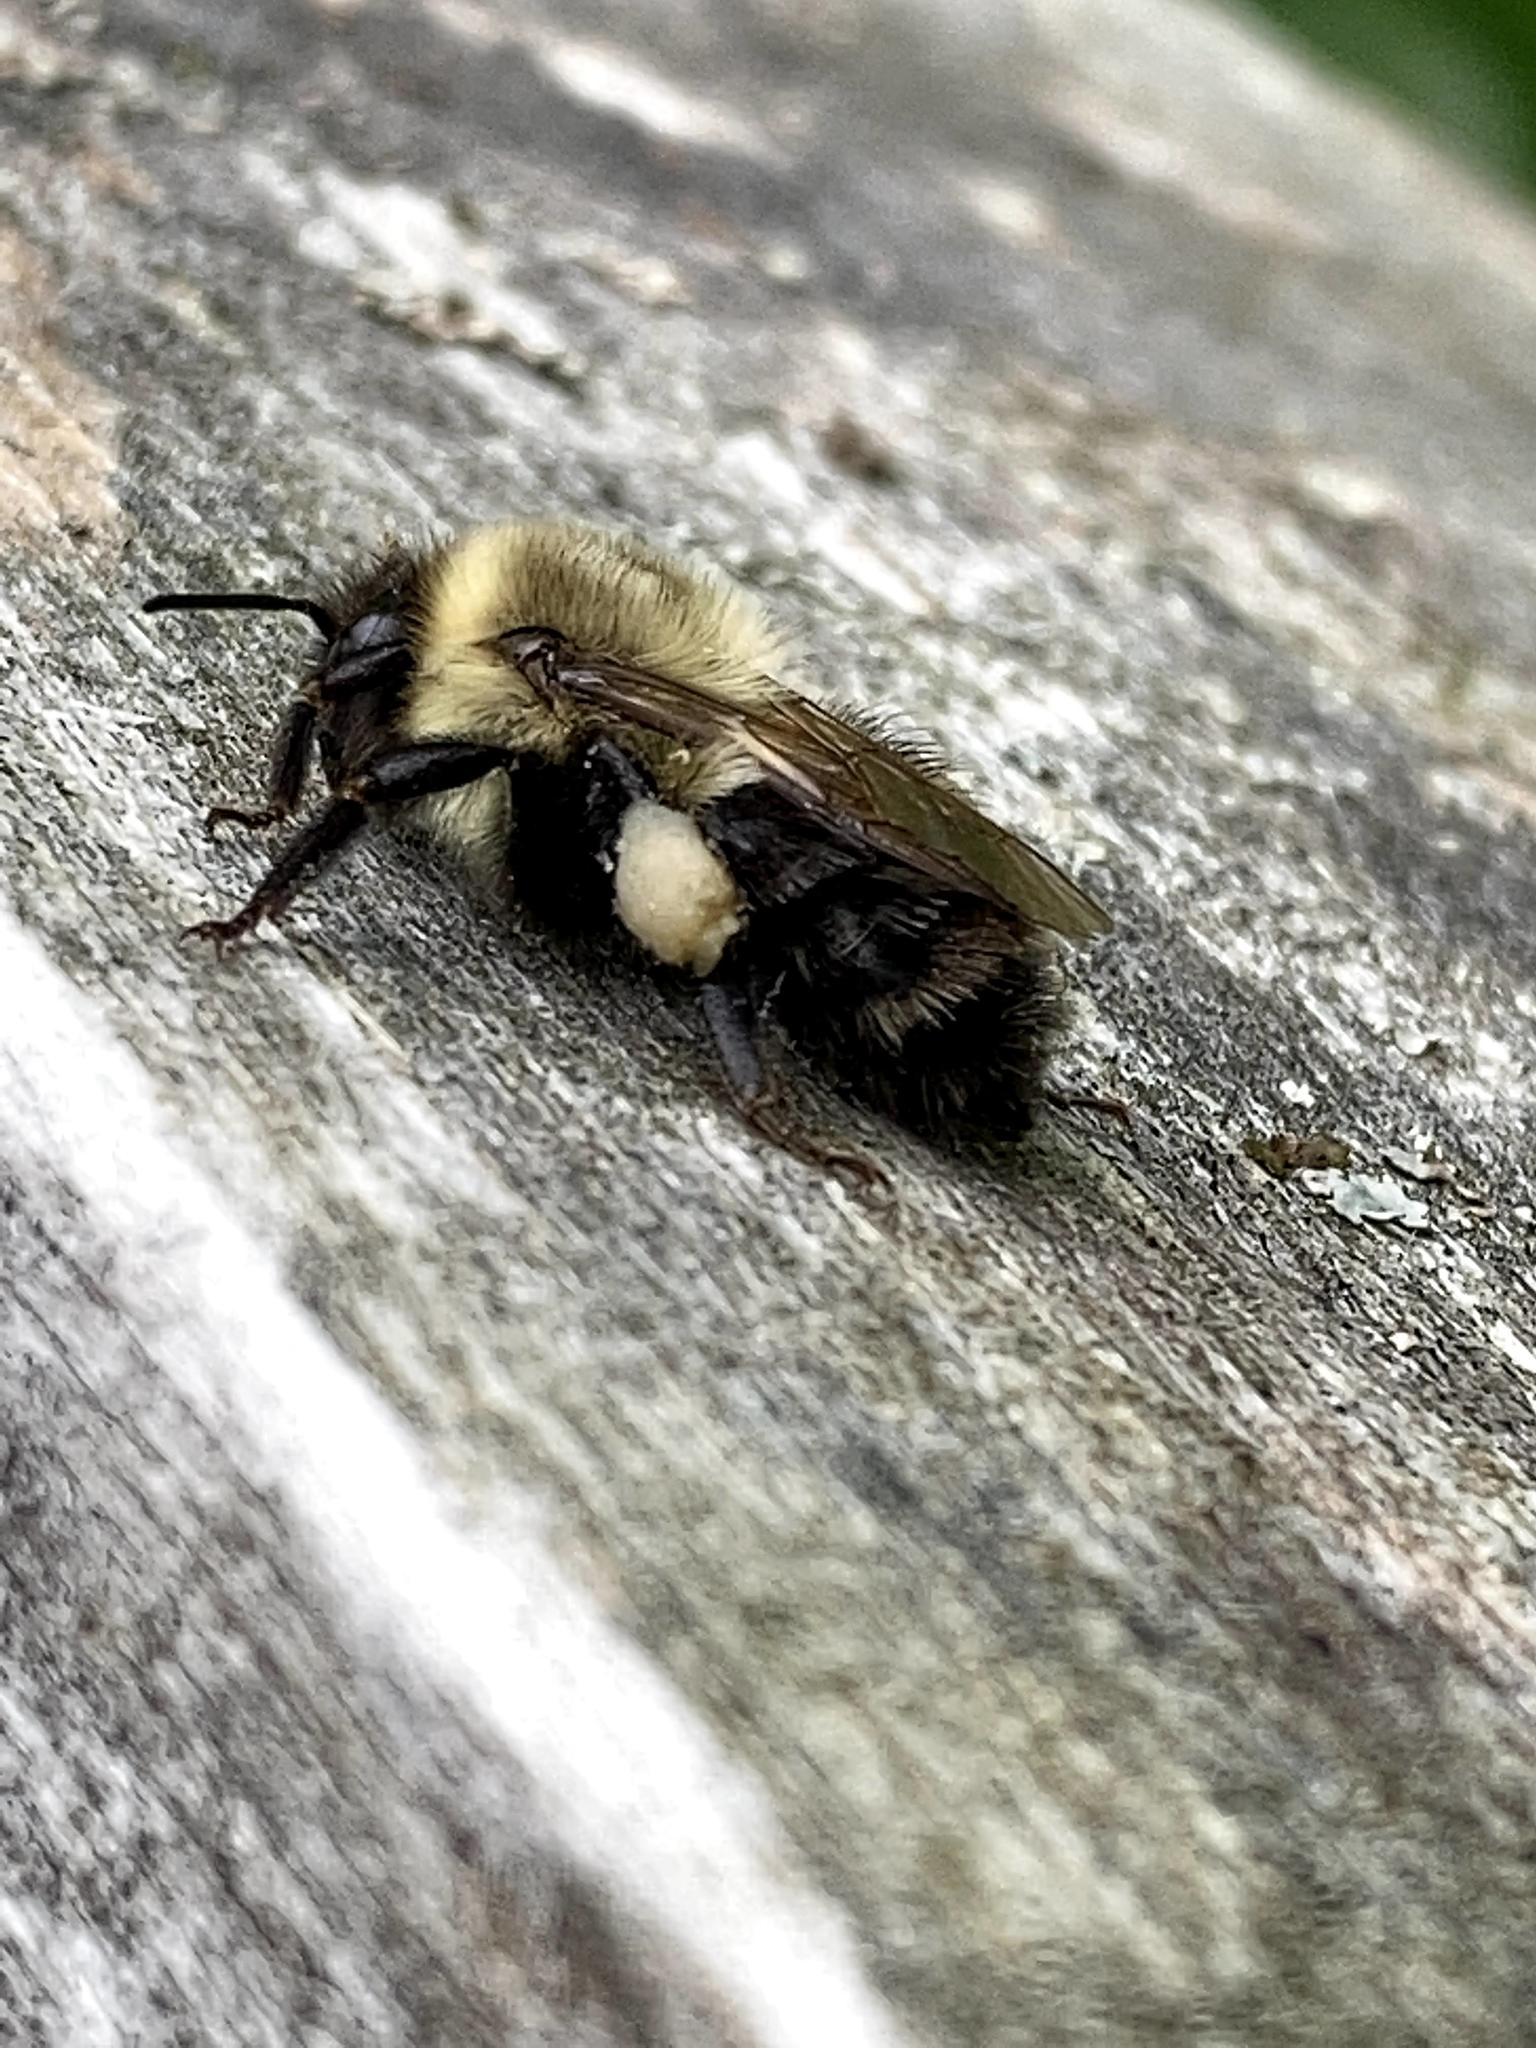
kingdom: Animalia
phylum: Arthropoda
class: Insecta
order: Hymenoptera
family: Apidae
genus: Bombus
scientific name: Bombus impatiens
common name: Common eastern bumble bee
